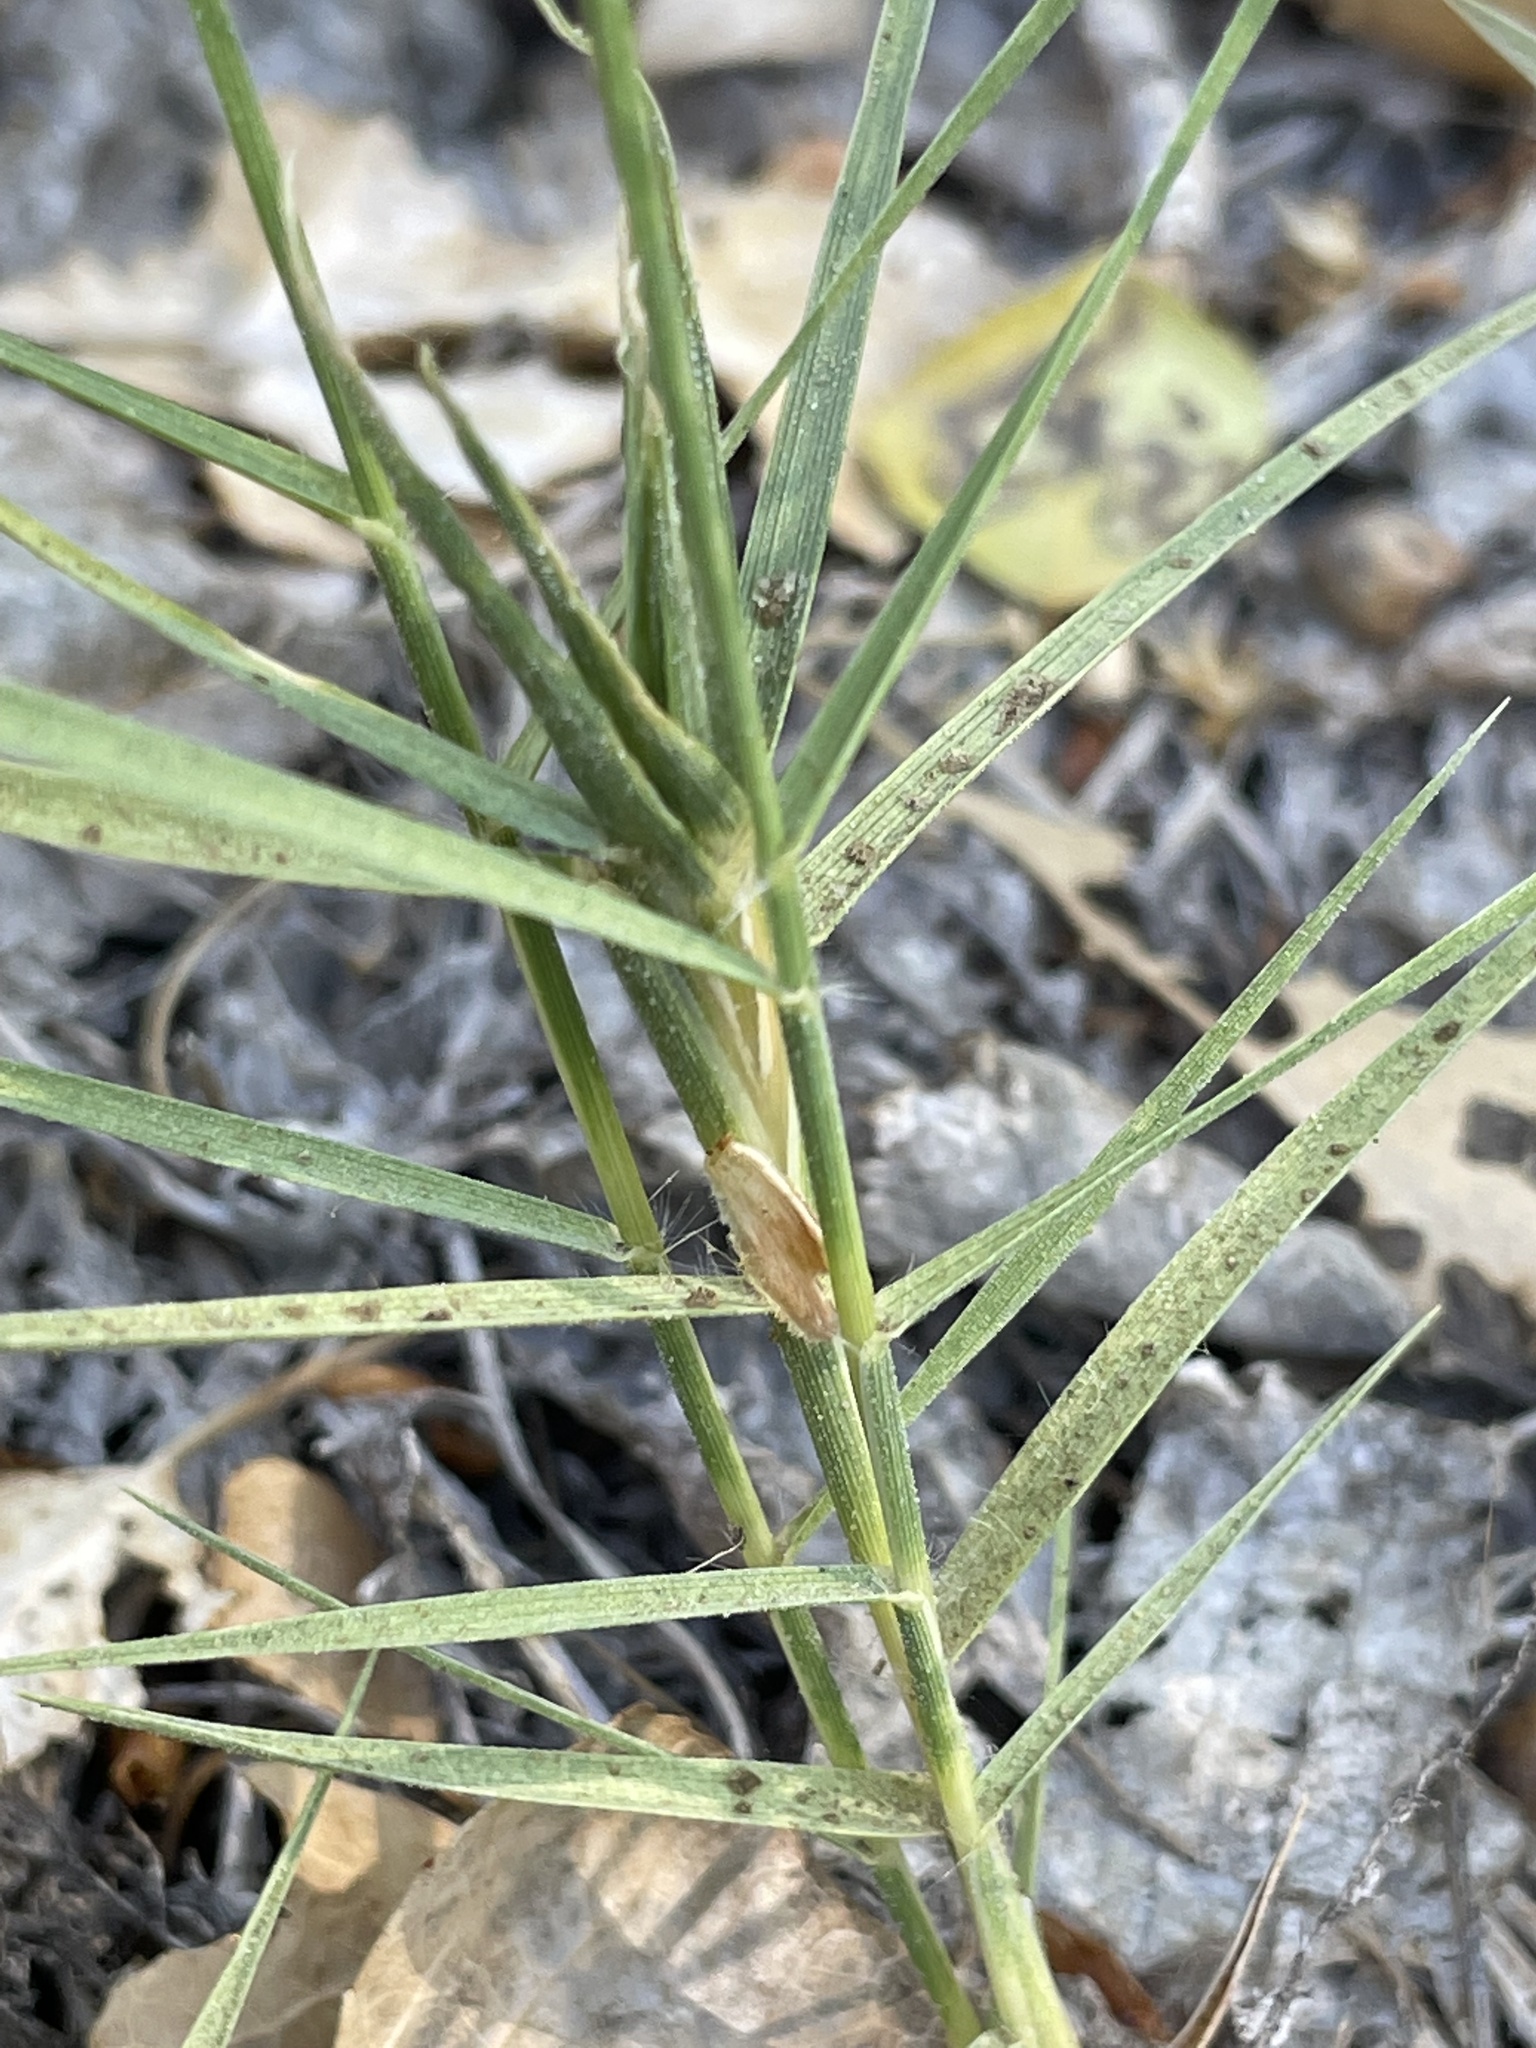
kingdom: Plantae
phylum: Tracheophyta
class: Liliopsida
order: Poales
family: Poaceae
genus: Distichlis
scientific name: Distichlis spicata
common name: Saltgrass
